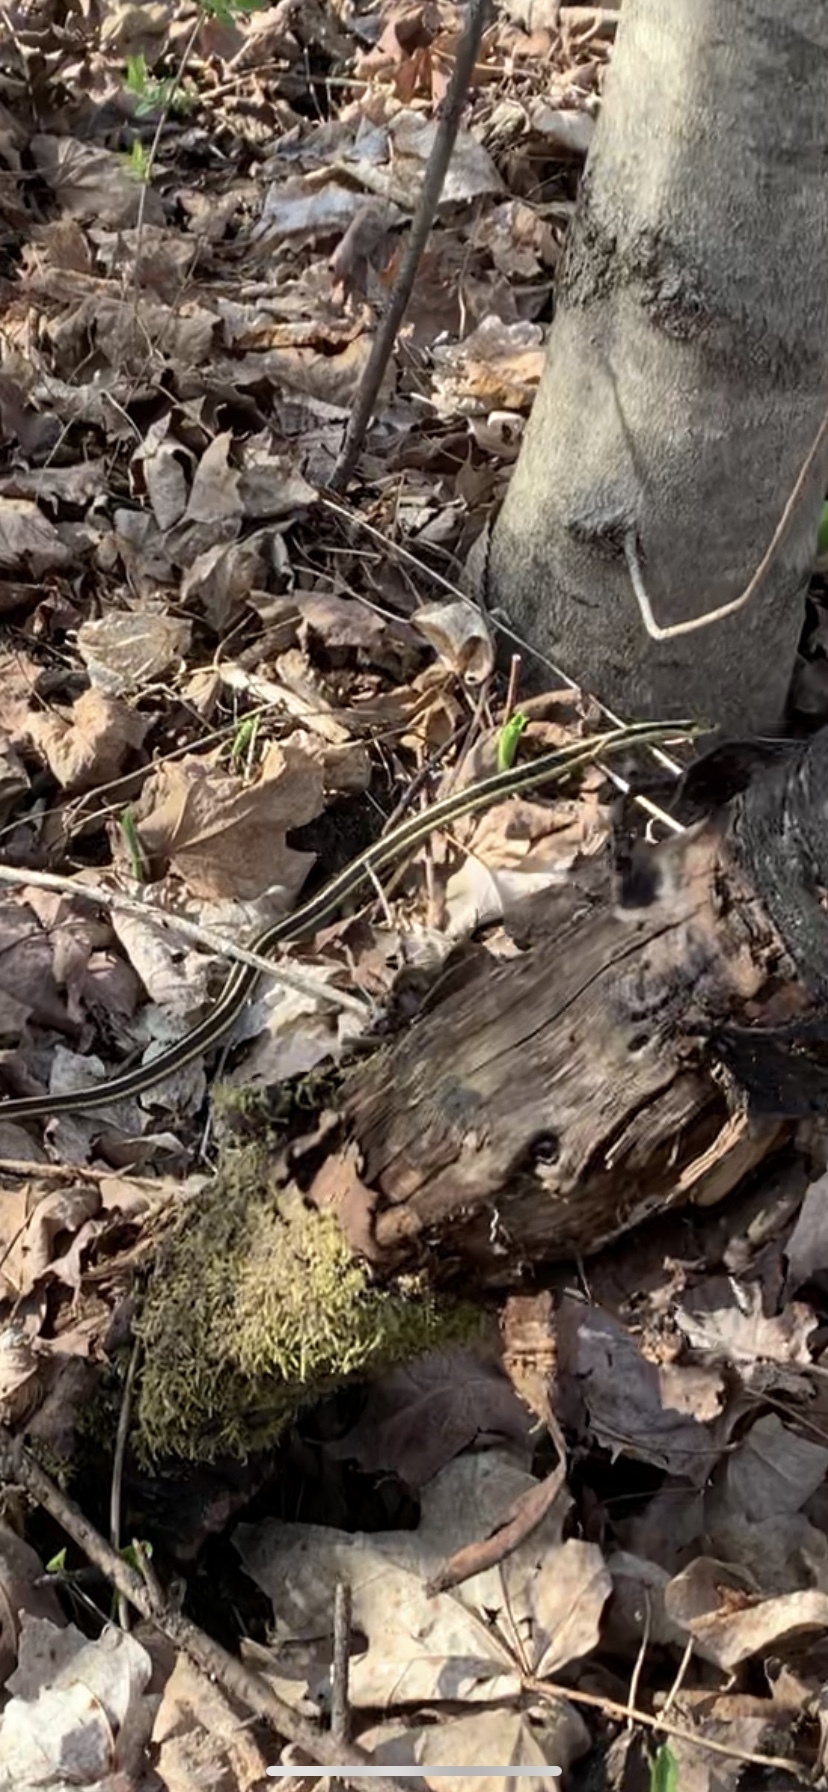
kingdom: Animalia
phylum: Chordata
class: Squamata
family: Colubridae
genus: Thamnophis
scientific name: Thamnophis sirtalis
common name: Common garter snake
